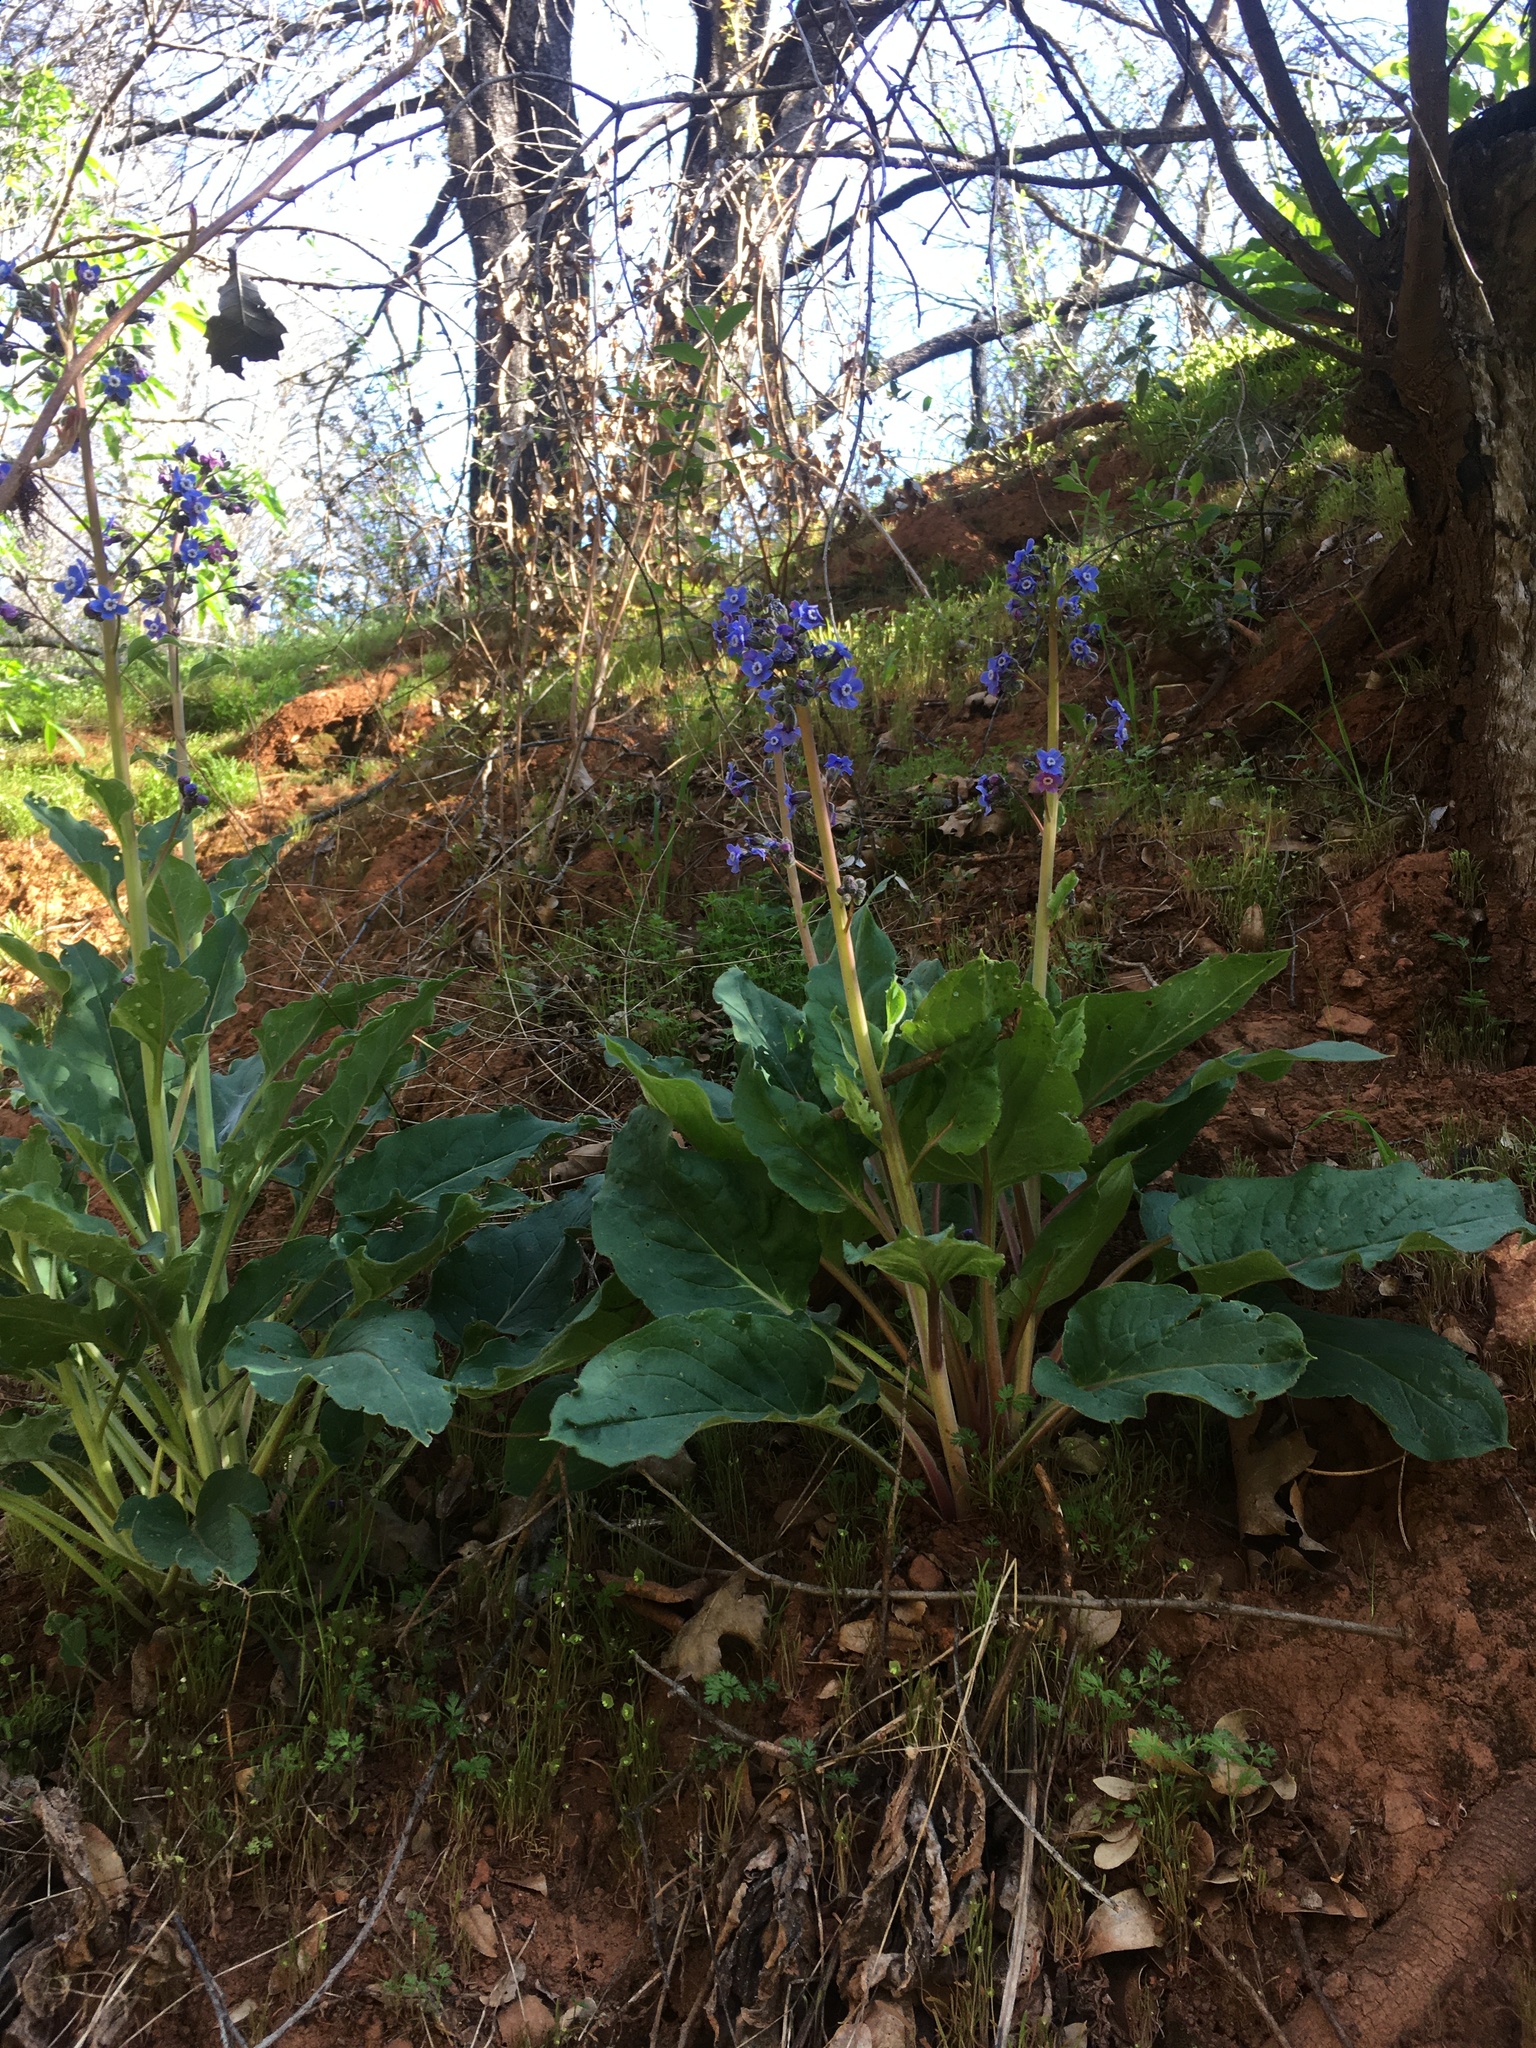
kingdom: Plantae
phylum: Tracheophyta
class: Magnoliopsida
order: Boraginales
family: Boraginaceae
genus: Adelinia
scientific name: Adelinia grande
